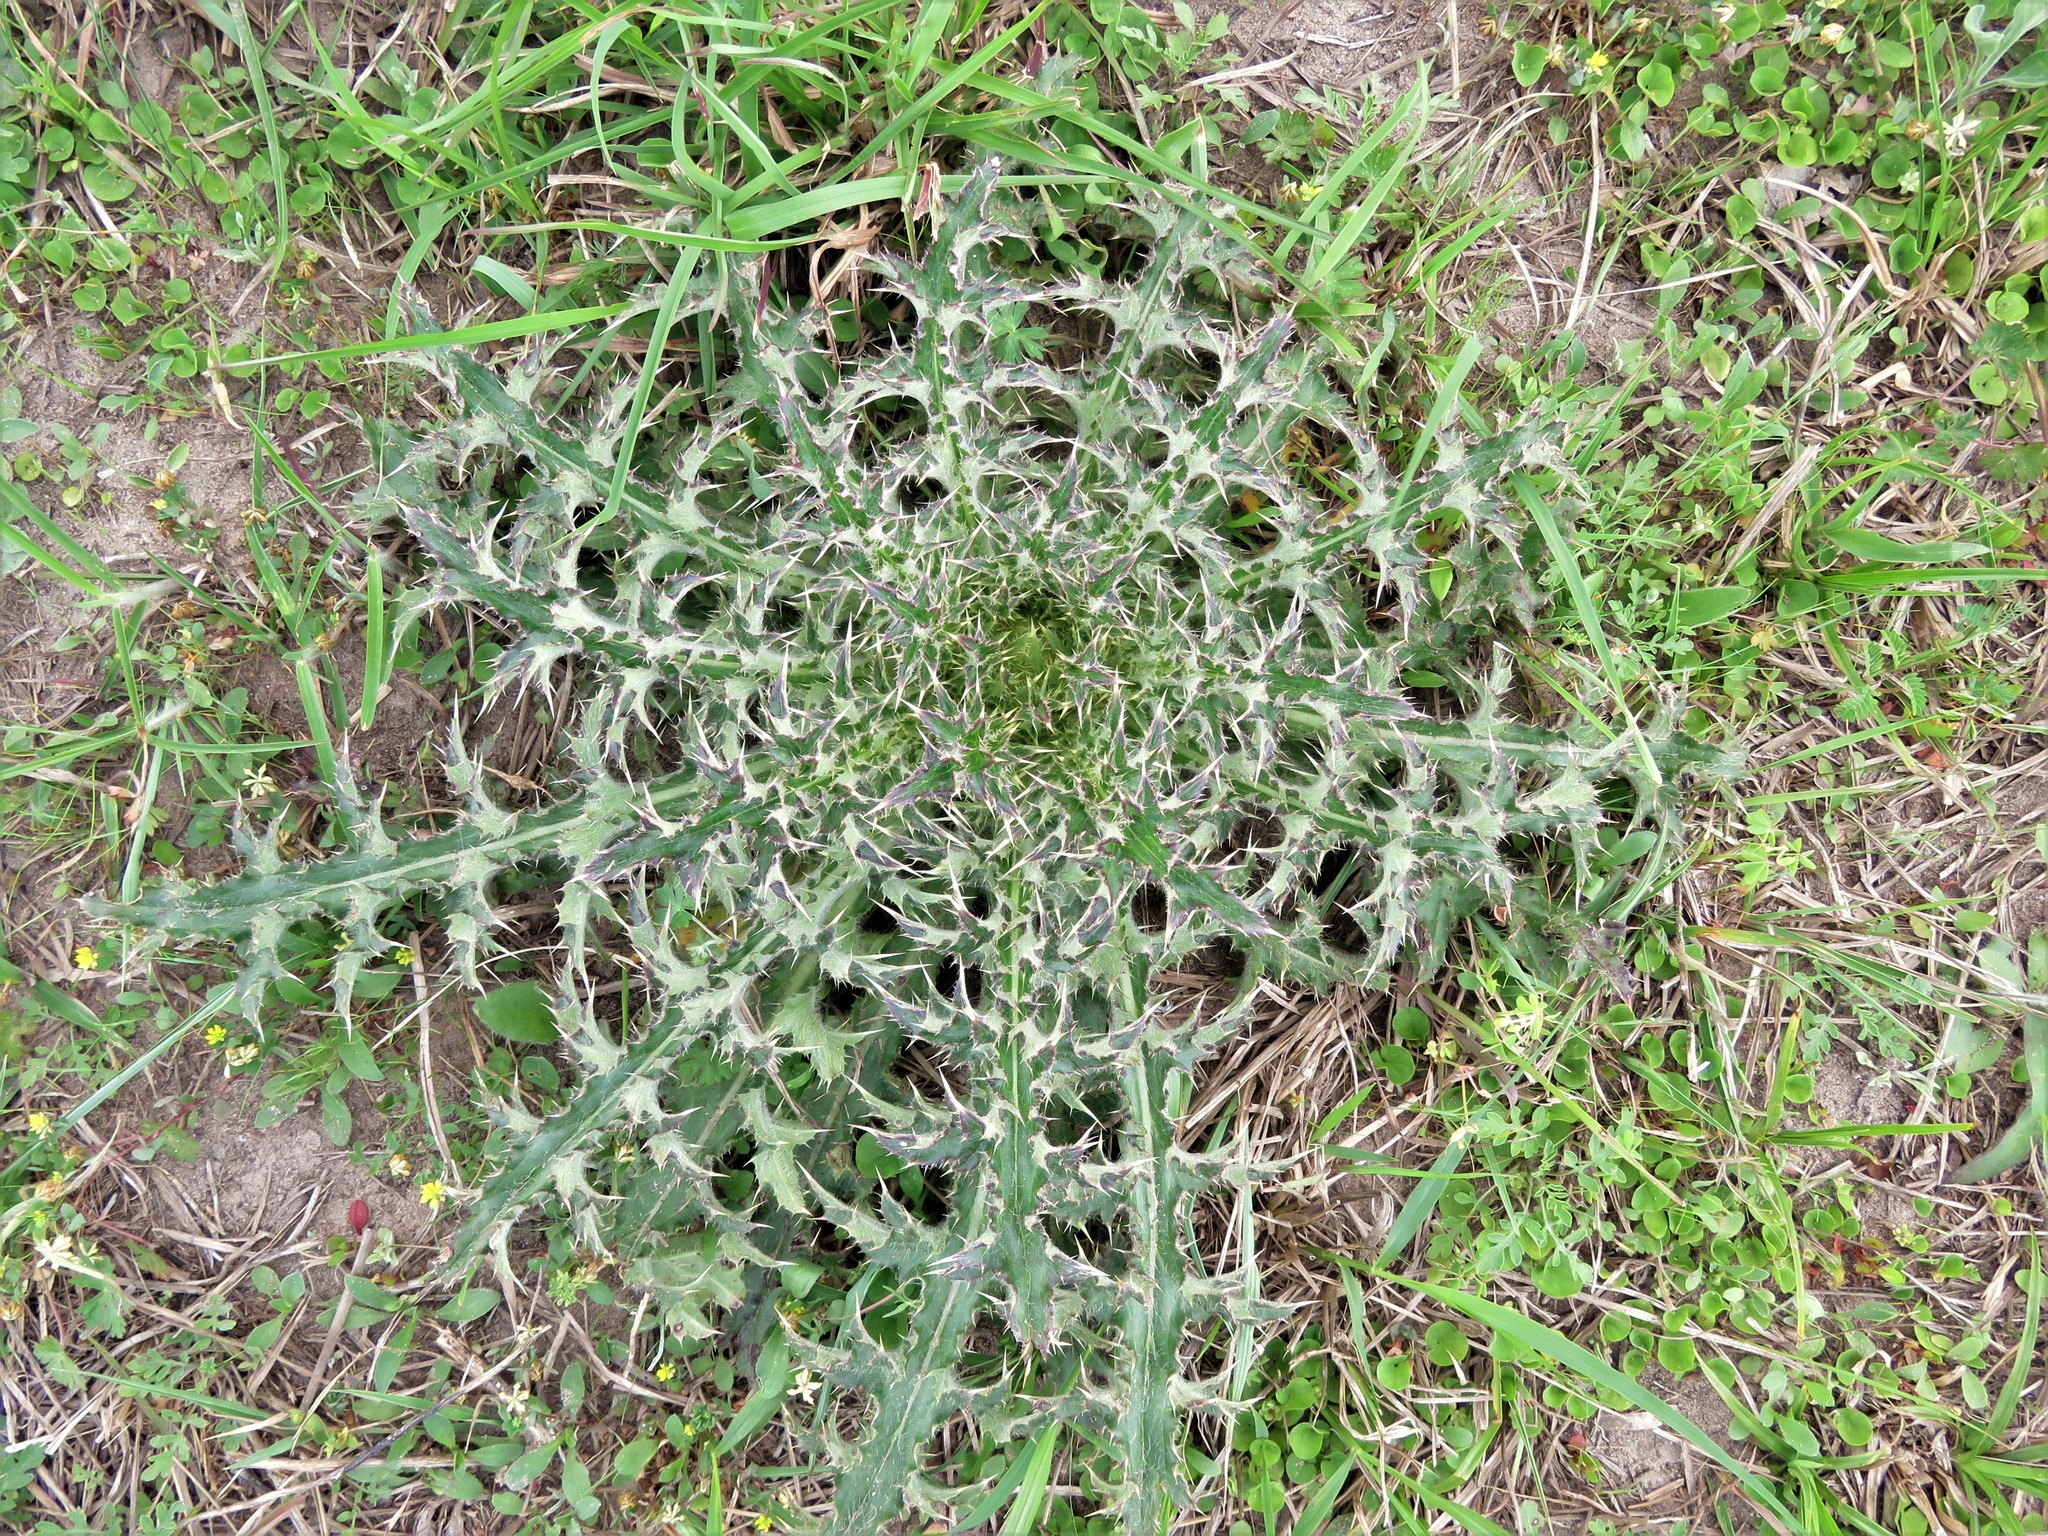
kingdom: Plantae
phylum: Tracheophyta
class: Magnoliopsida
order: Asterales
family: Asteraceae
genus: Cirsium
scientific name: Cirsium horridulum
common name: Bristly thistle
